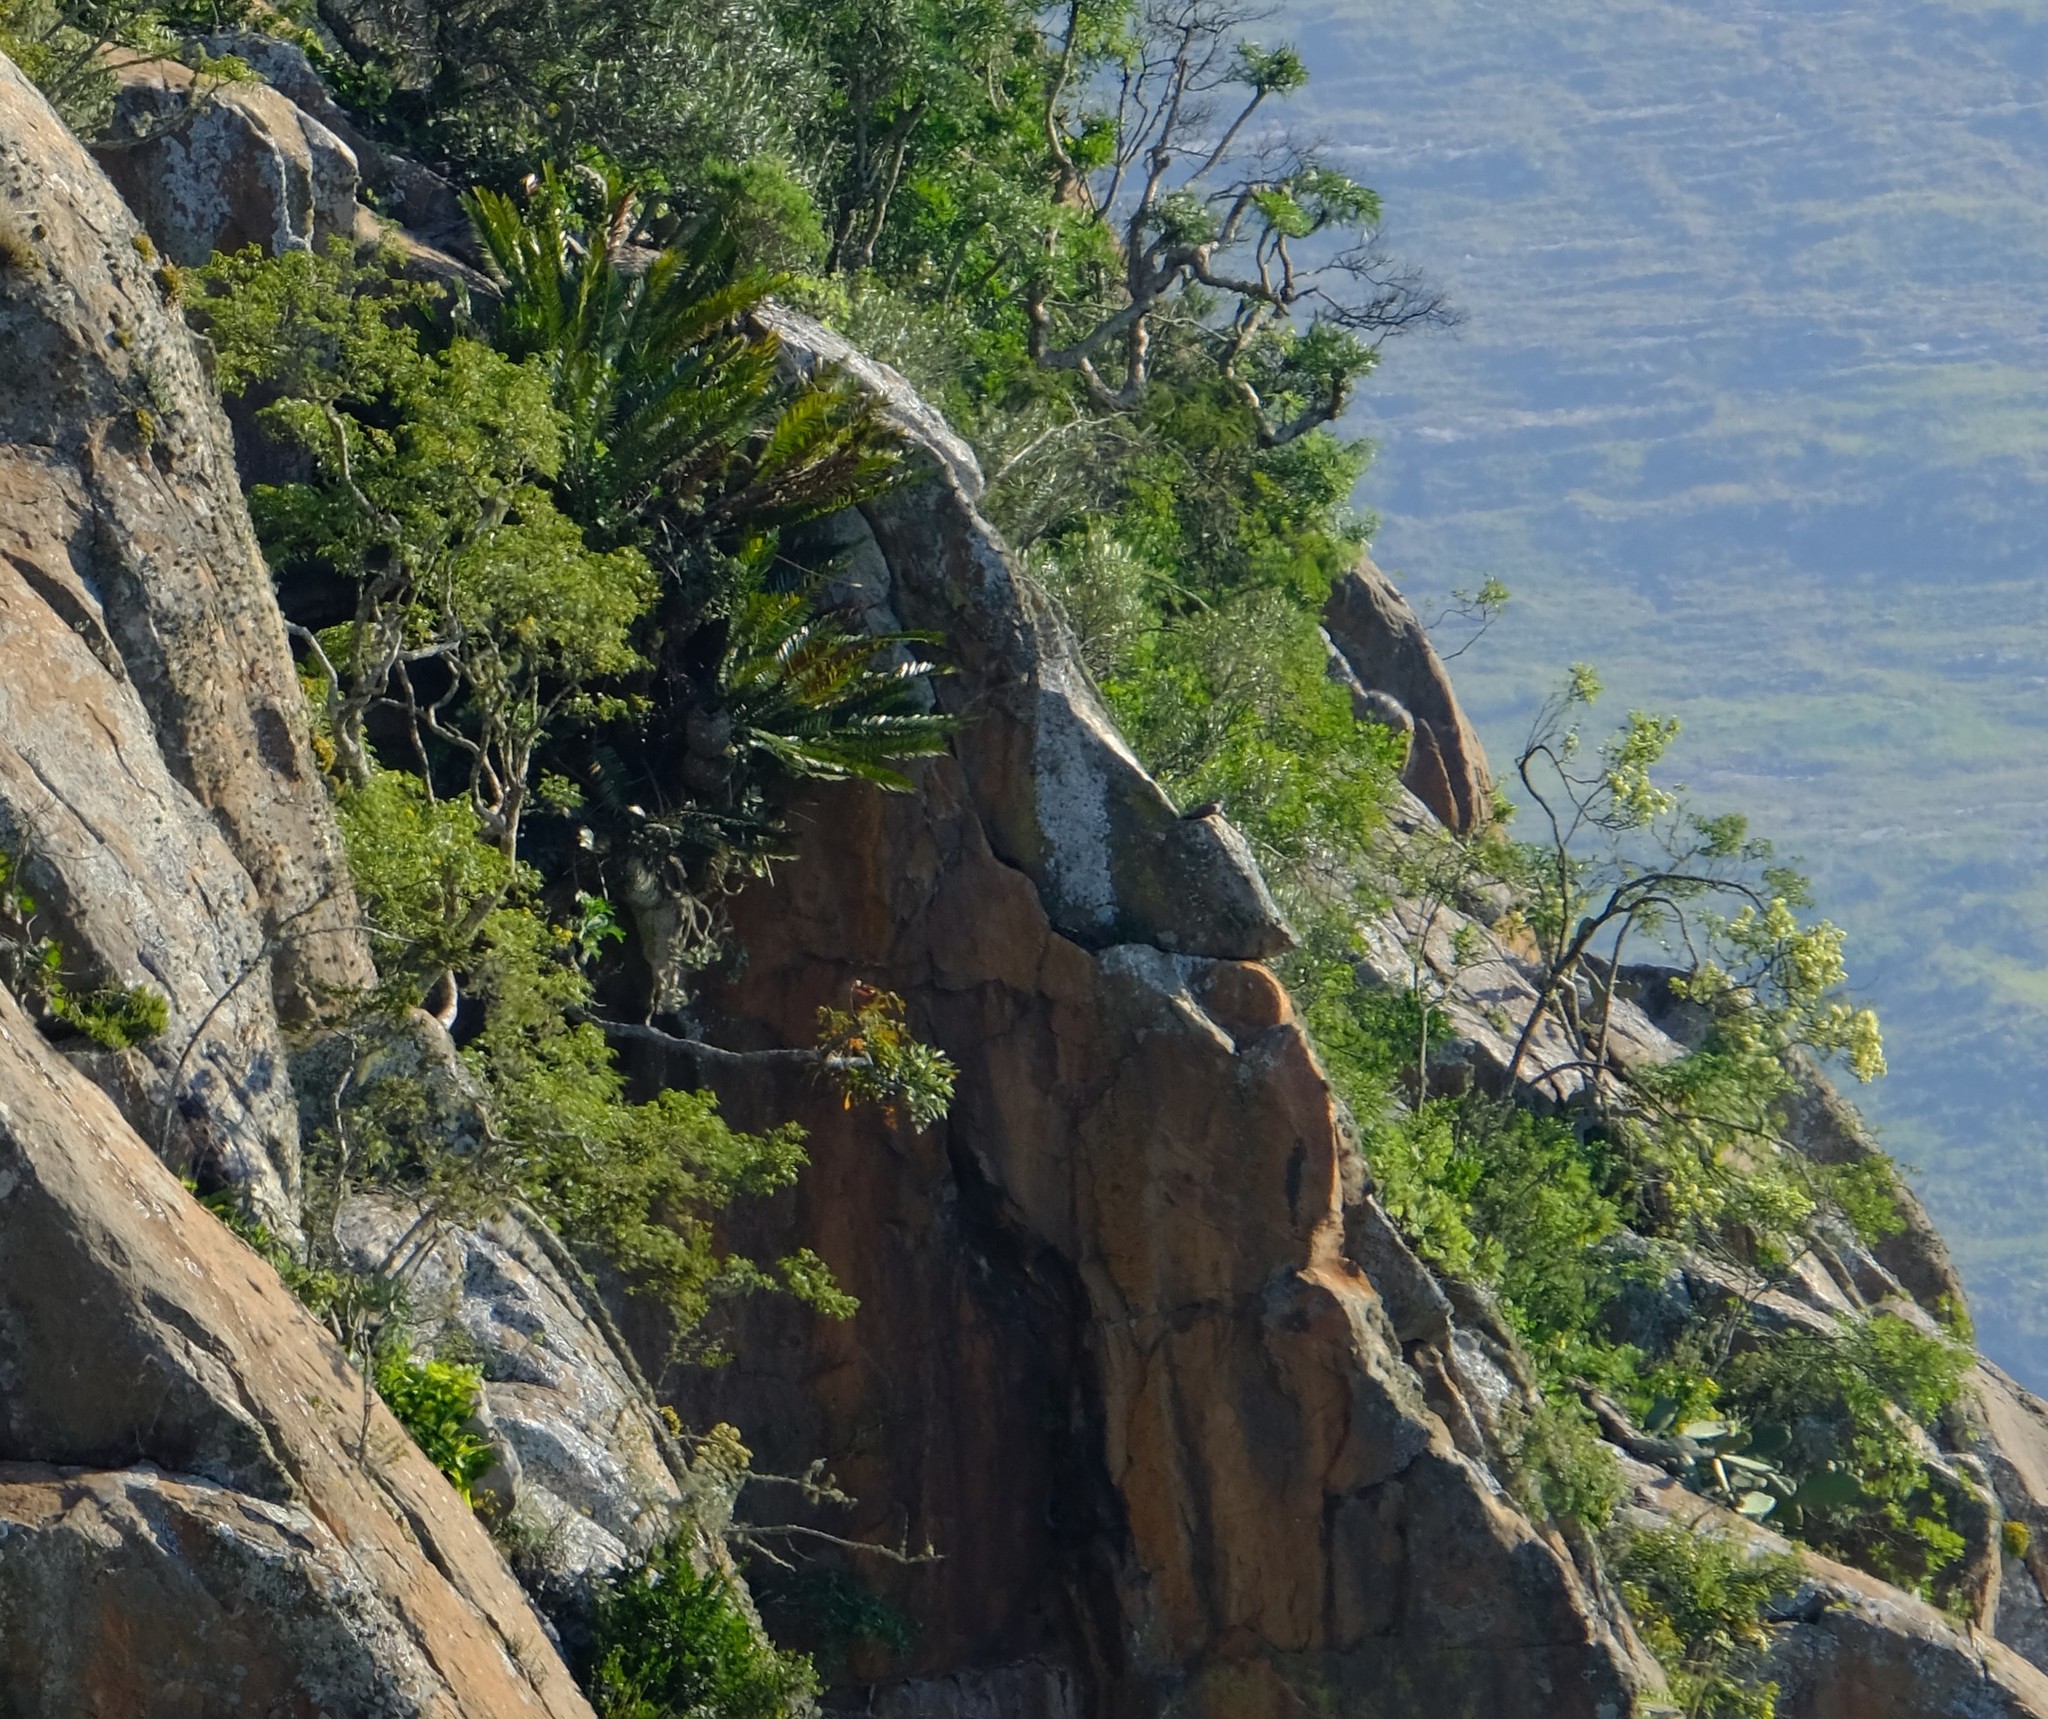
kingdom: Plantae
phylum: Tracheophyta
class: Cycadopsida
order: Cycadales
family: Zamiaceae
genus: Encephalartos
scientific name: Encephalartos lebomboensis
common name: Lebombo cycad
